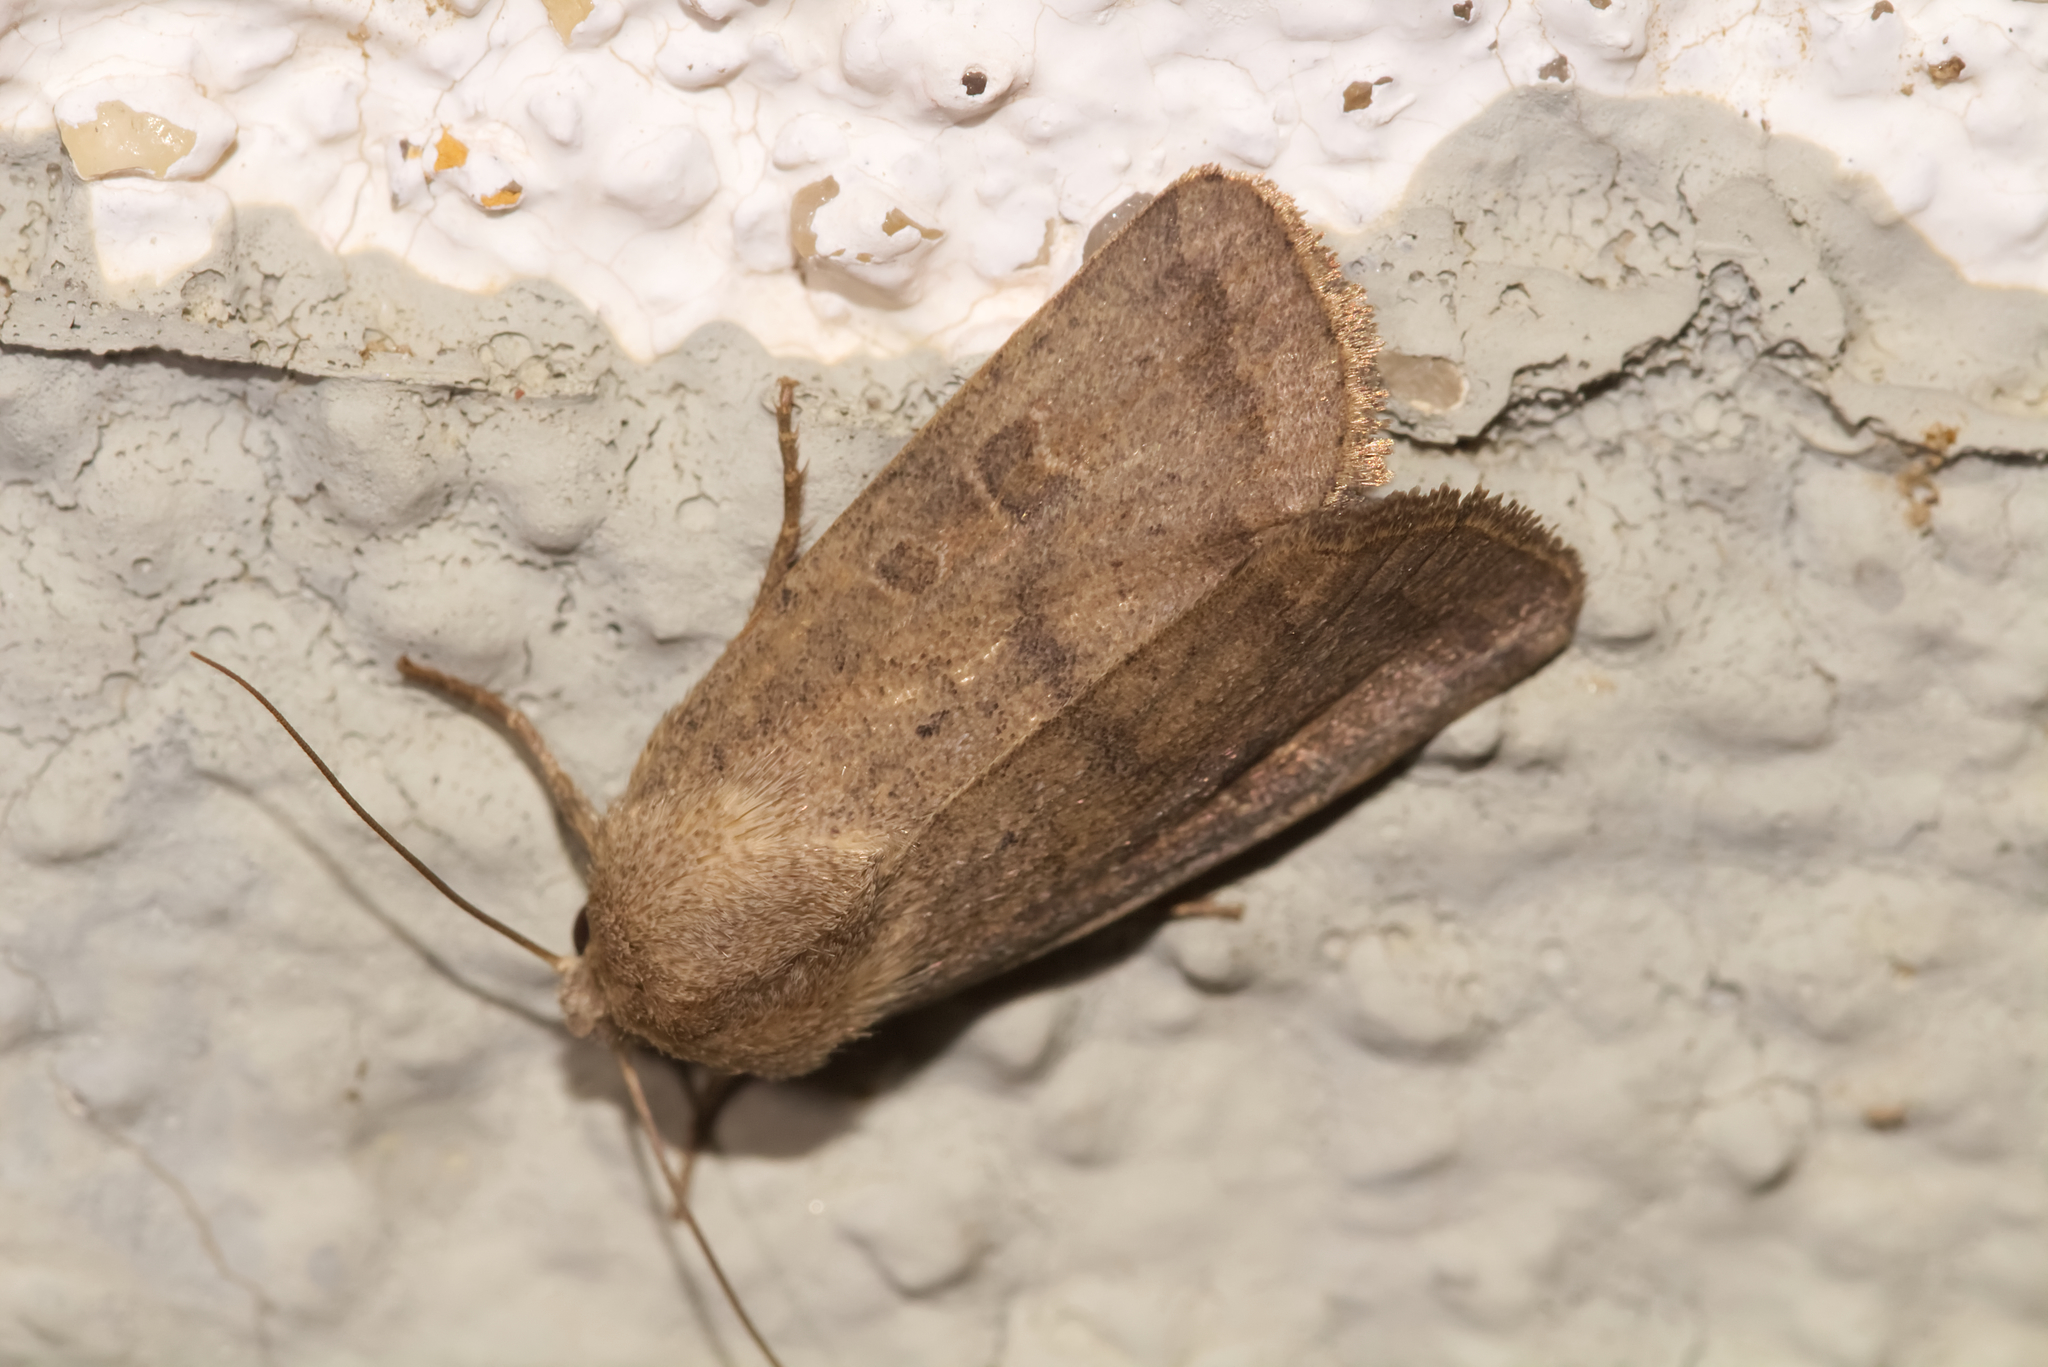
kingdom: Animalia
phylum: Arthropoda
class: Insecta
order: Lepidoptera
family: Noctuidae
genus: Hoplodrina
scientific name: Hoplodrina blanda
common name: Rustic
